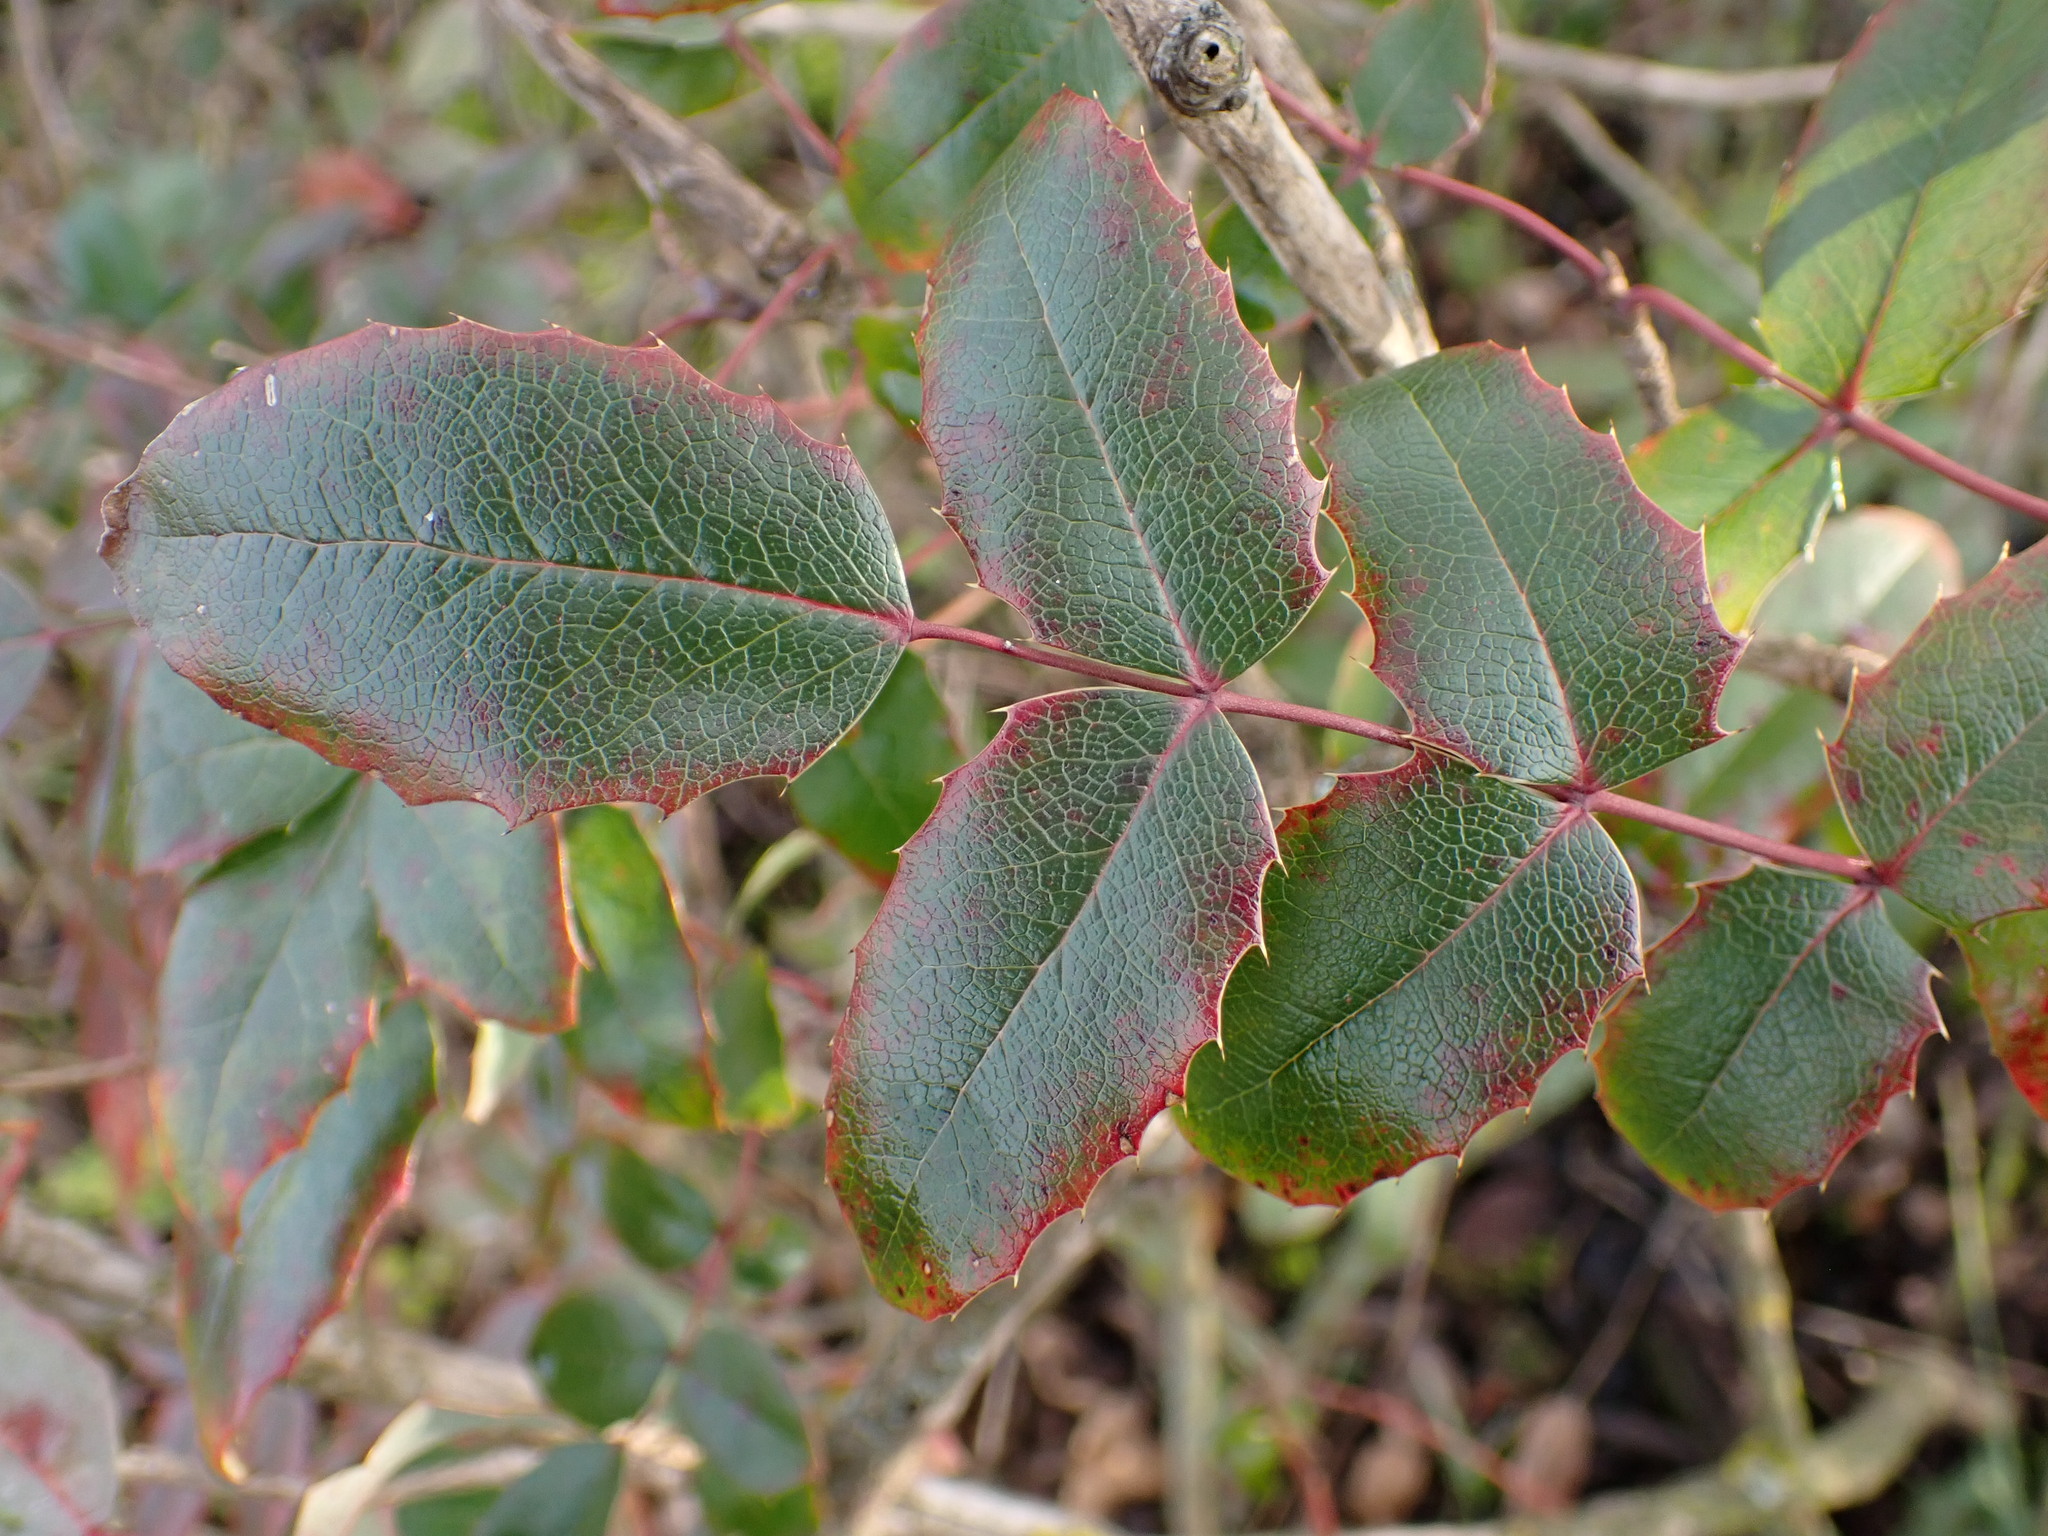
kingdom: Plantae
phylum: Tracheophyta
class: Magnoliopsida
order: Ranunculales
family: Berberidaceae
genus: Mahonia
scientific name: Mahonia aquifolium
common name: Oregon-grape
